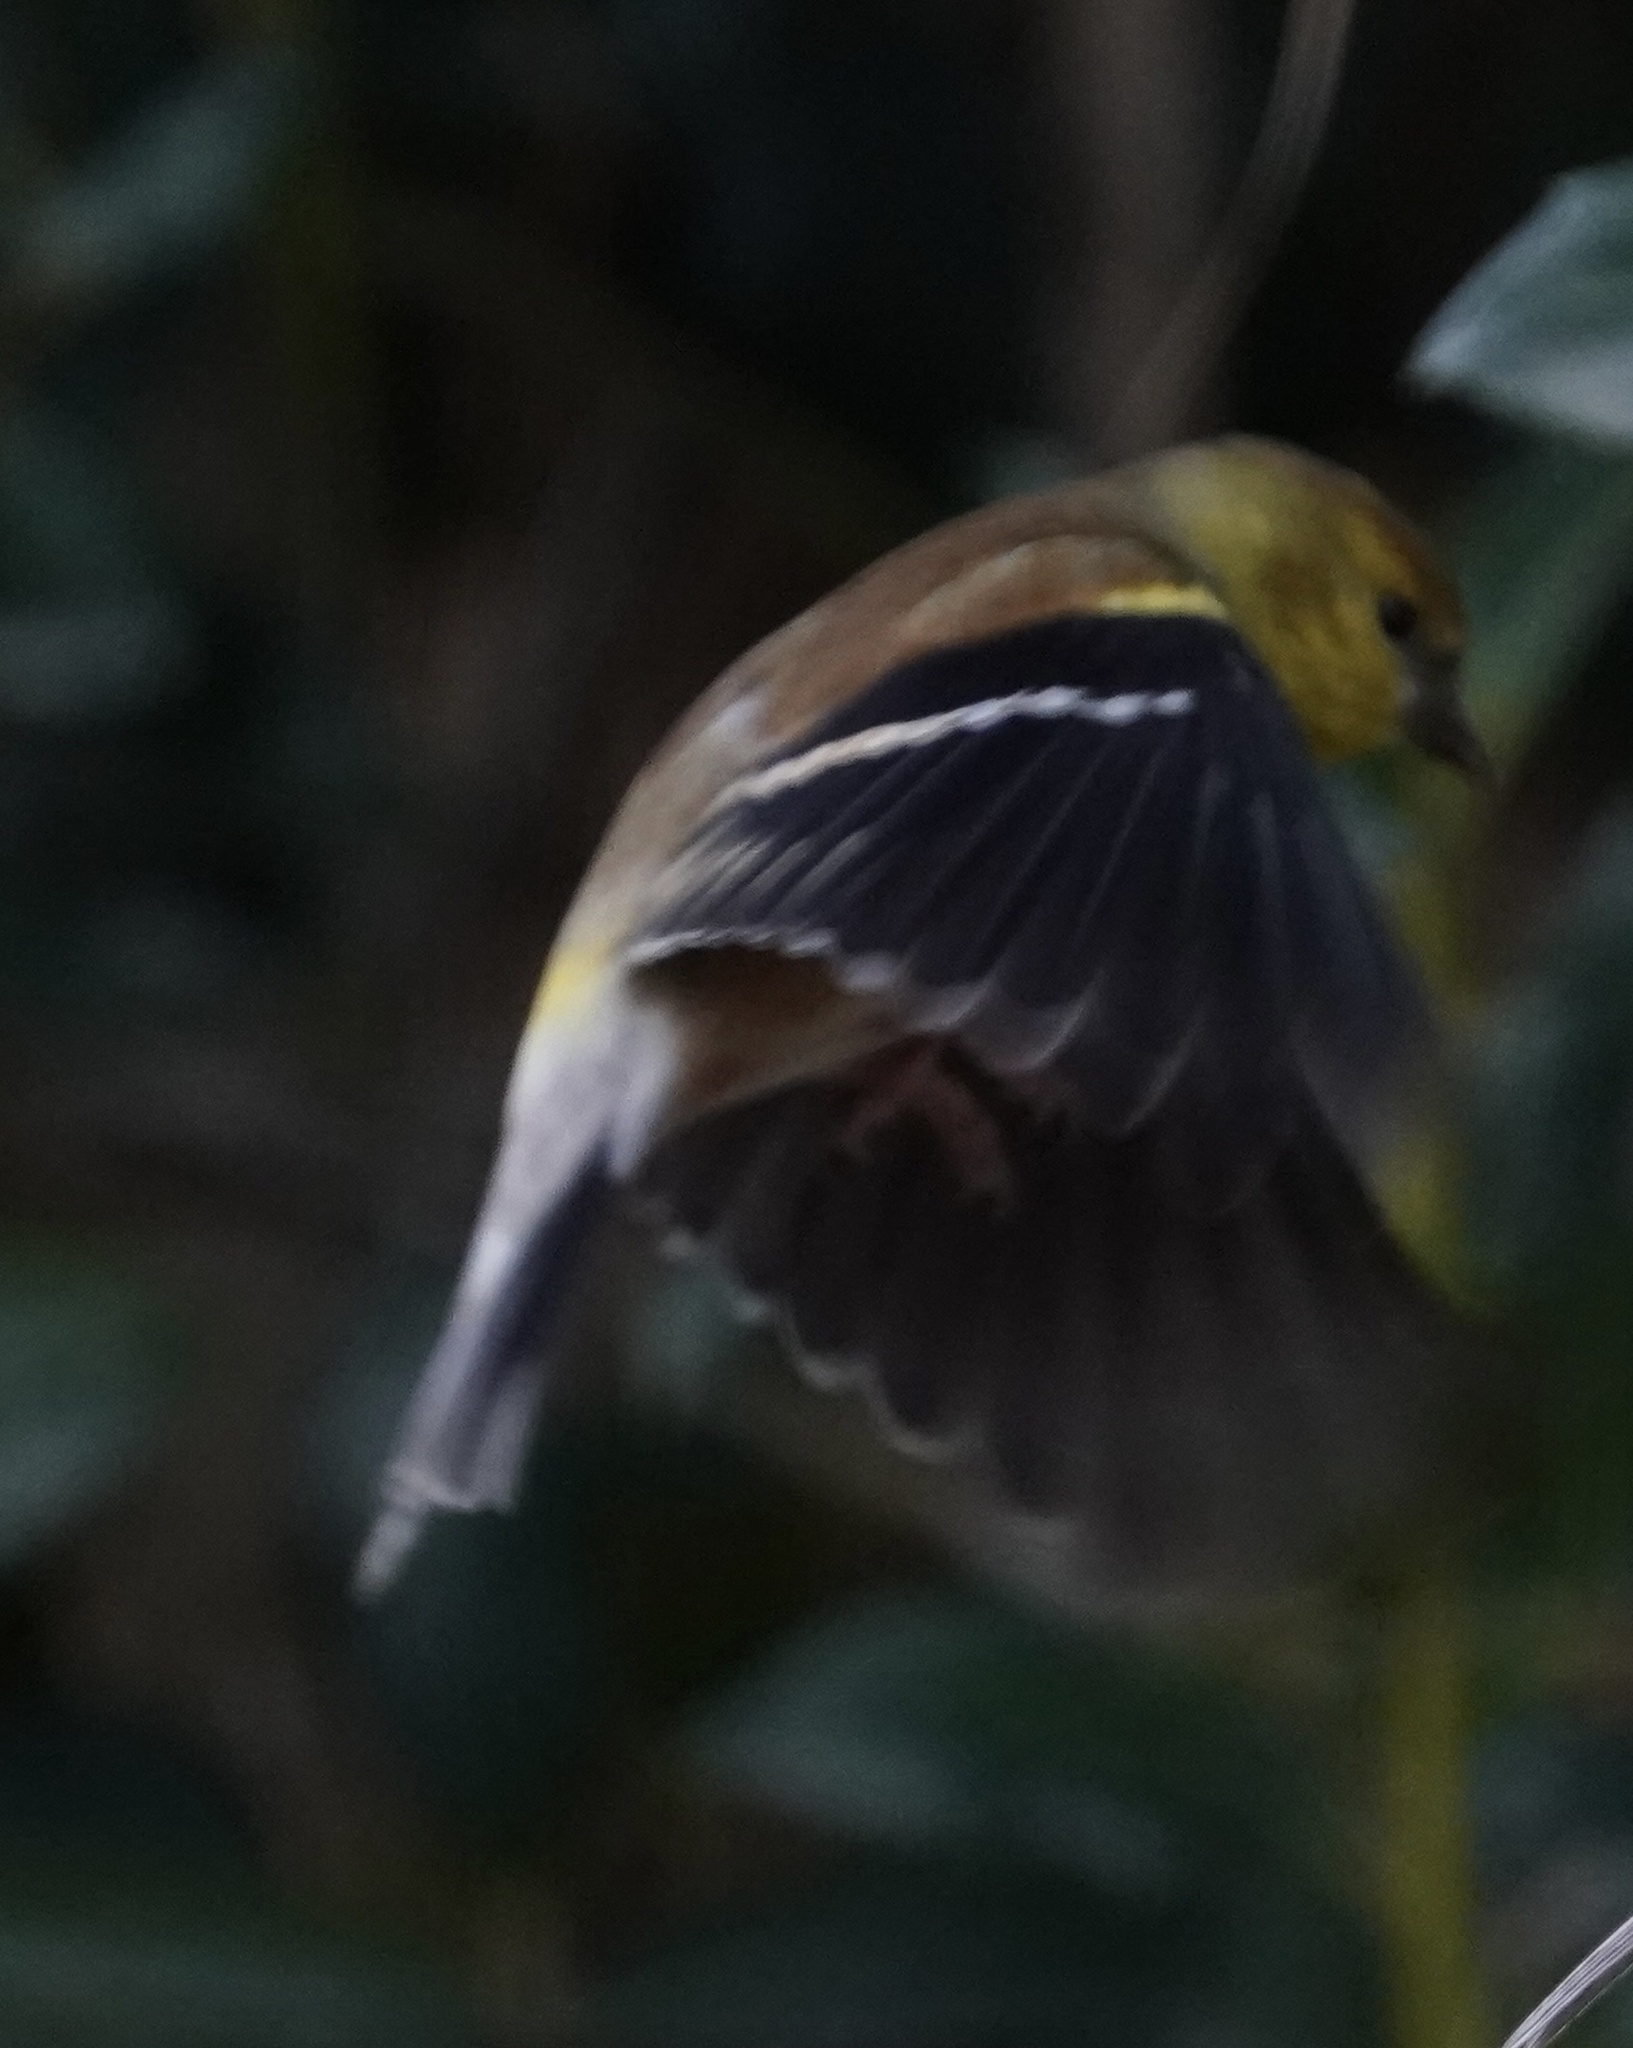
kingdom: Animalia
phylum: Chordata
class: Aves
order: Passeriformes
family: Fringillidae
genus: Spinus
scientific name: Spinus tristis
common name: American goldfinch
